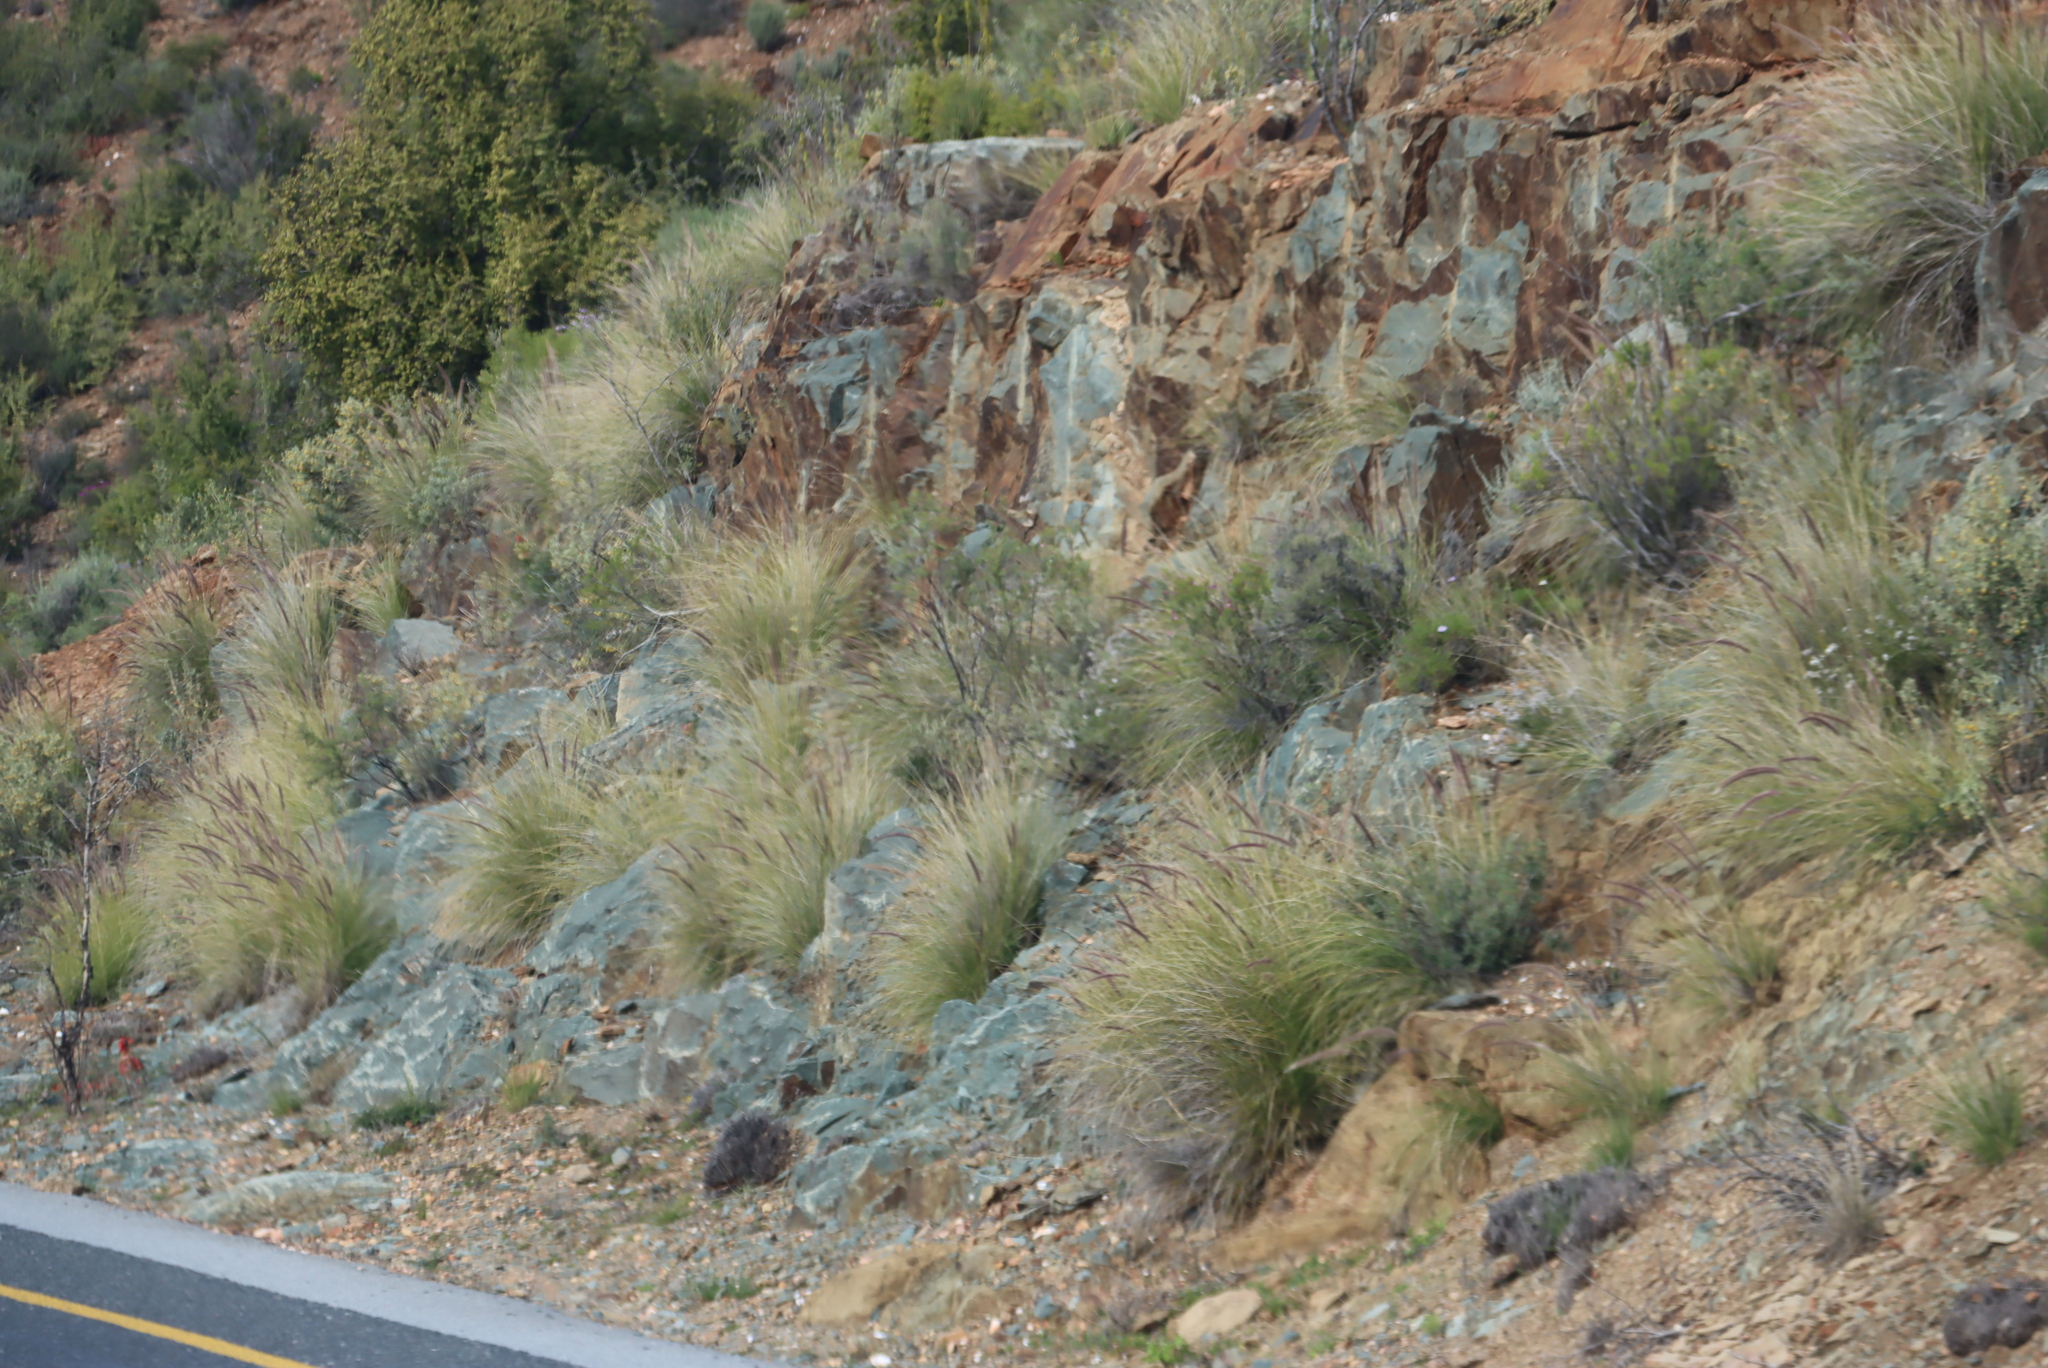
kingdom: Plantae
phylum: Tracheophyta
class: Liliopsida
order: Poales
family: Poaceae
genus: Cenchrus
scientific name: Cenchrus setaceus
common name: Crimson fountaingrass
